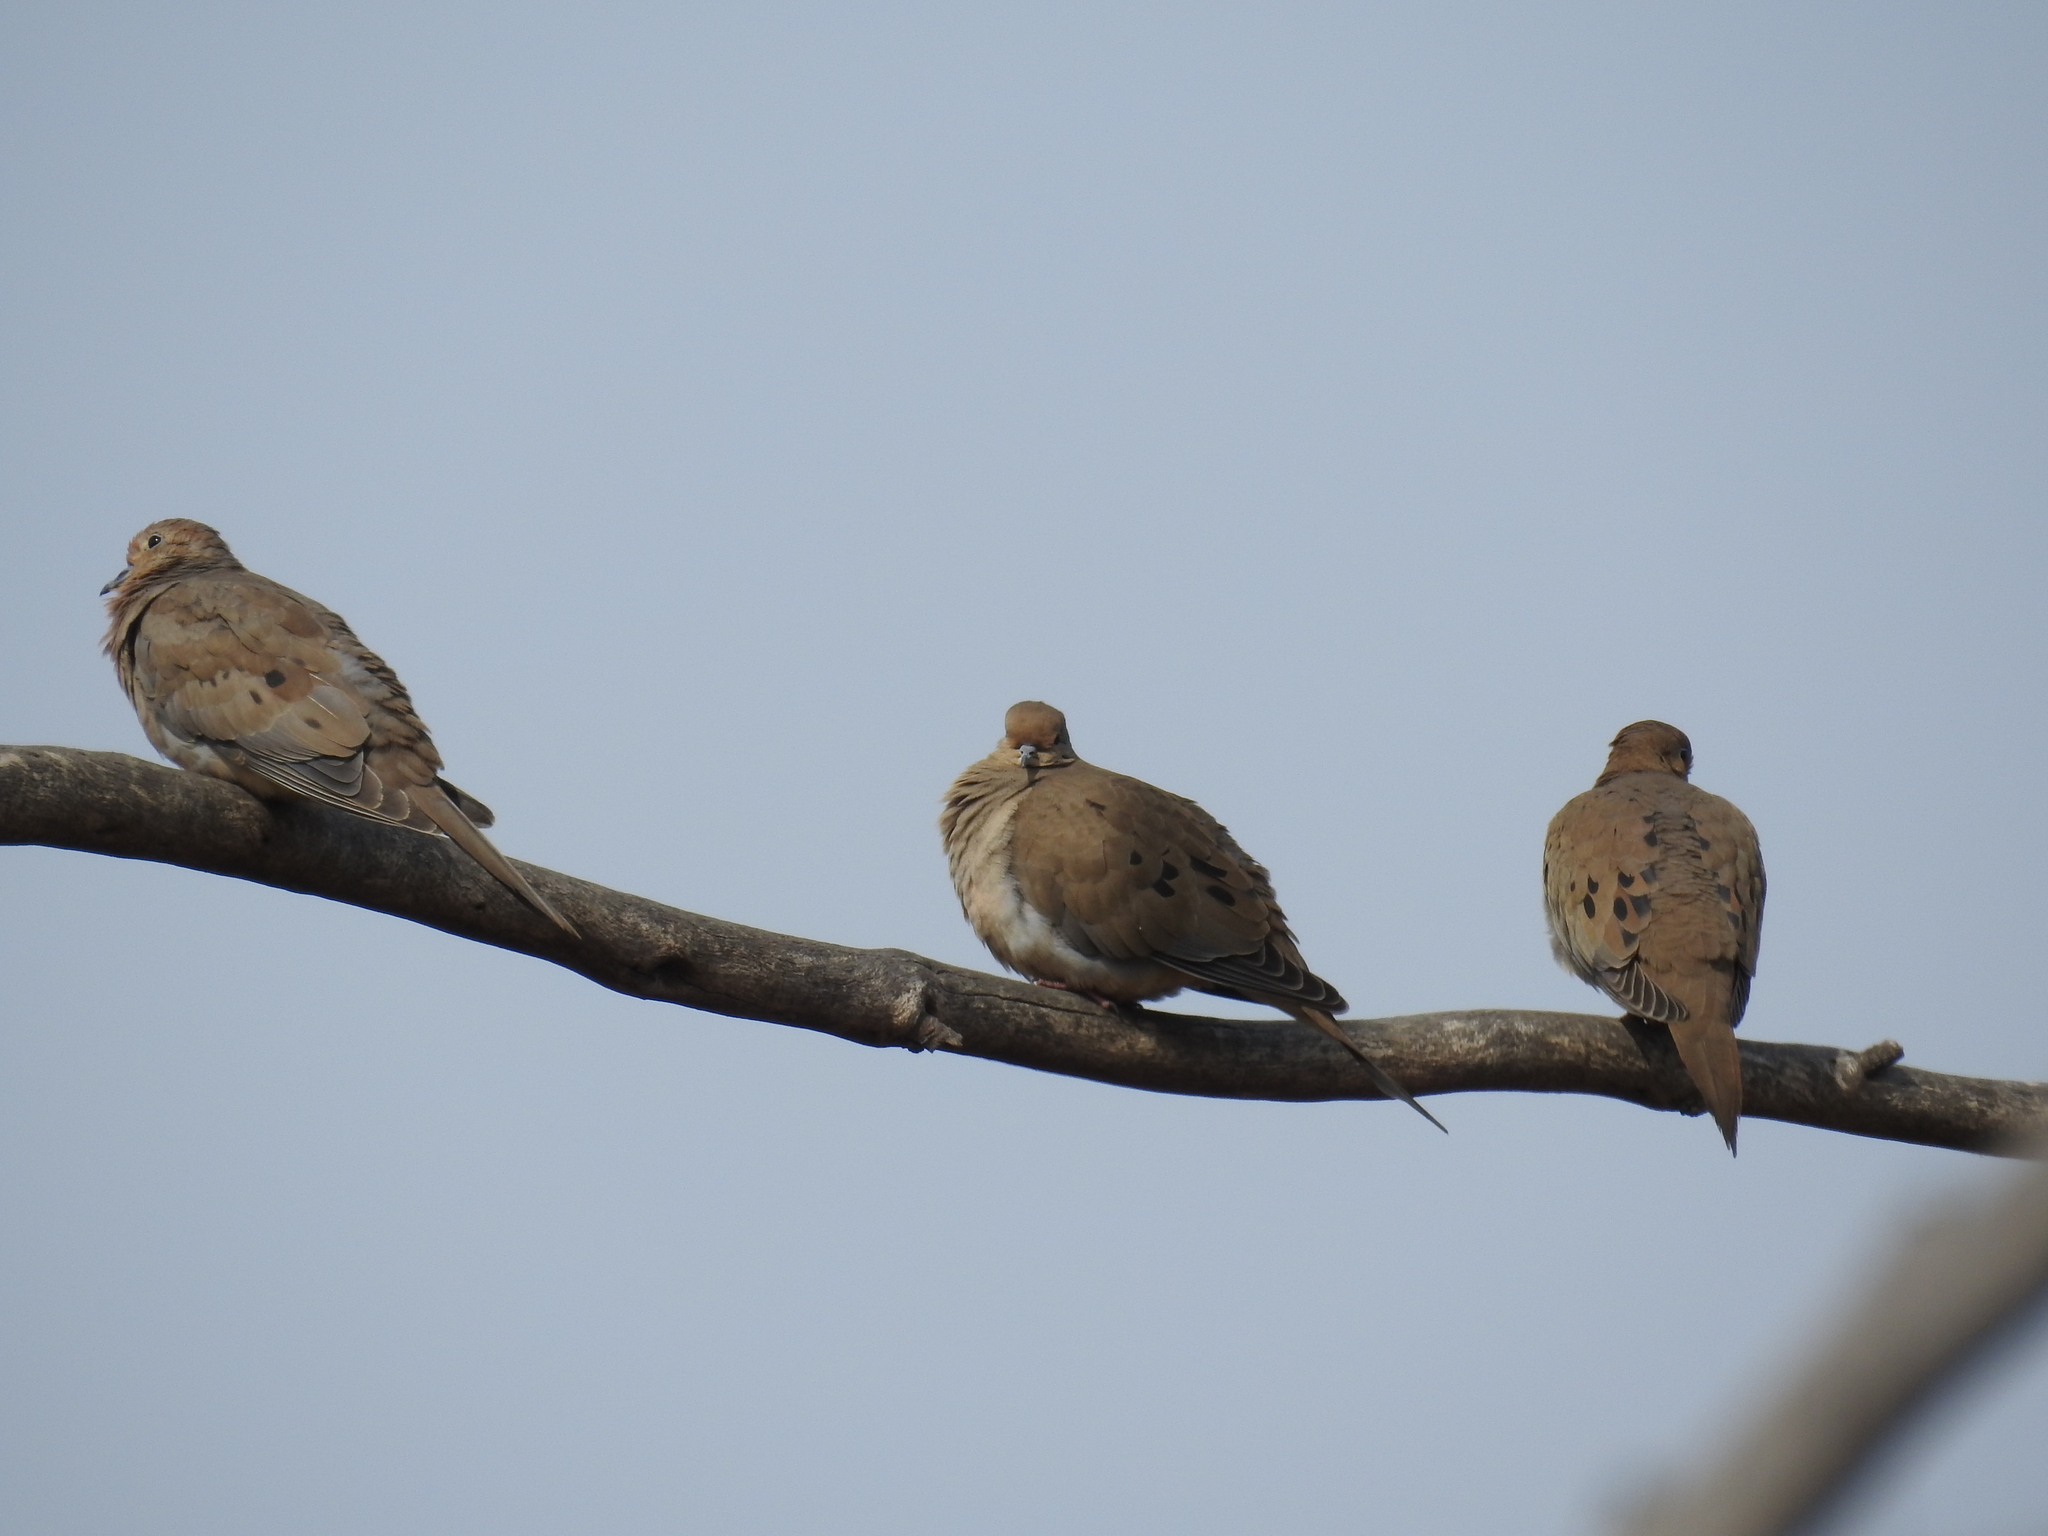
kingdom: Animalia
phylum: Chordata
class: Aves
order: Columbiformes
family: Columbidae
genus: Zenaida
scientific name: Zenaida macroura
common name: Mourning dove
